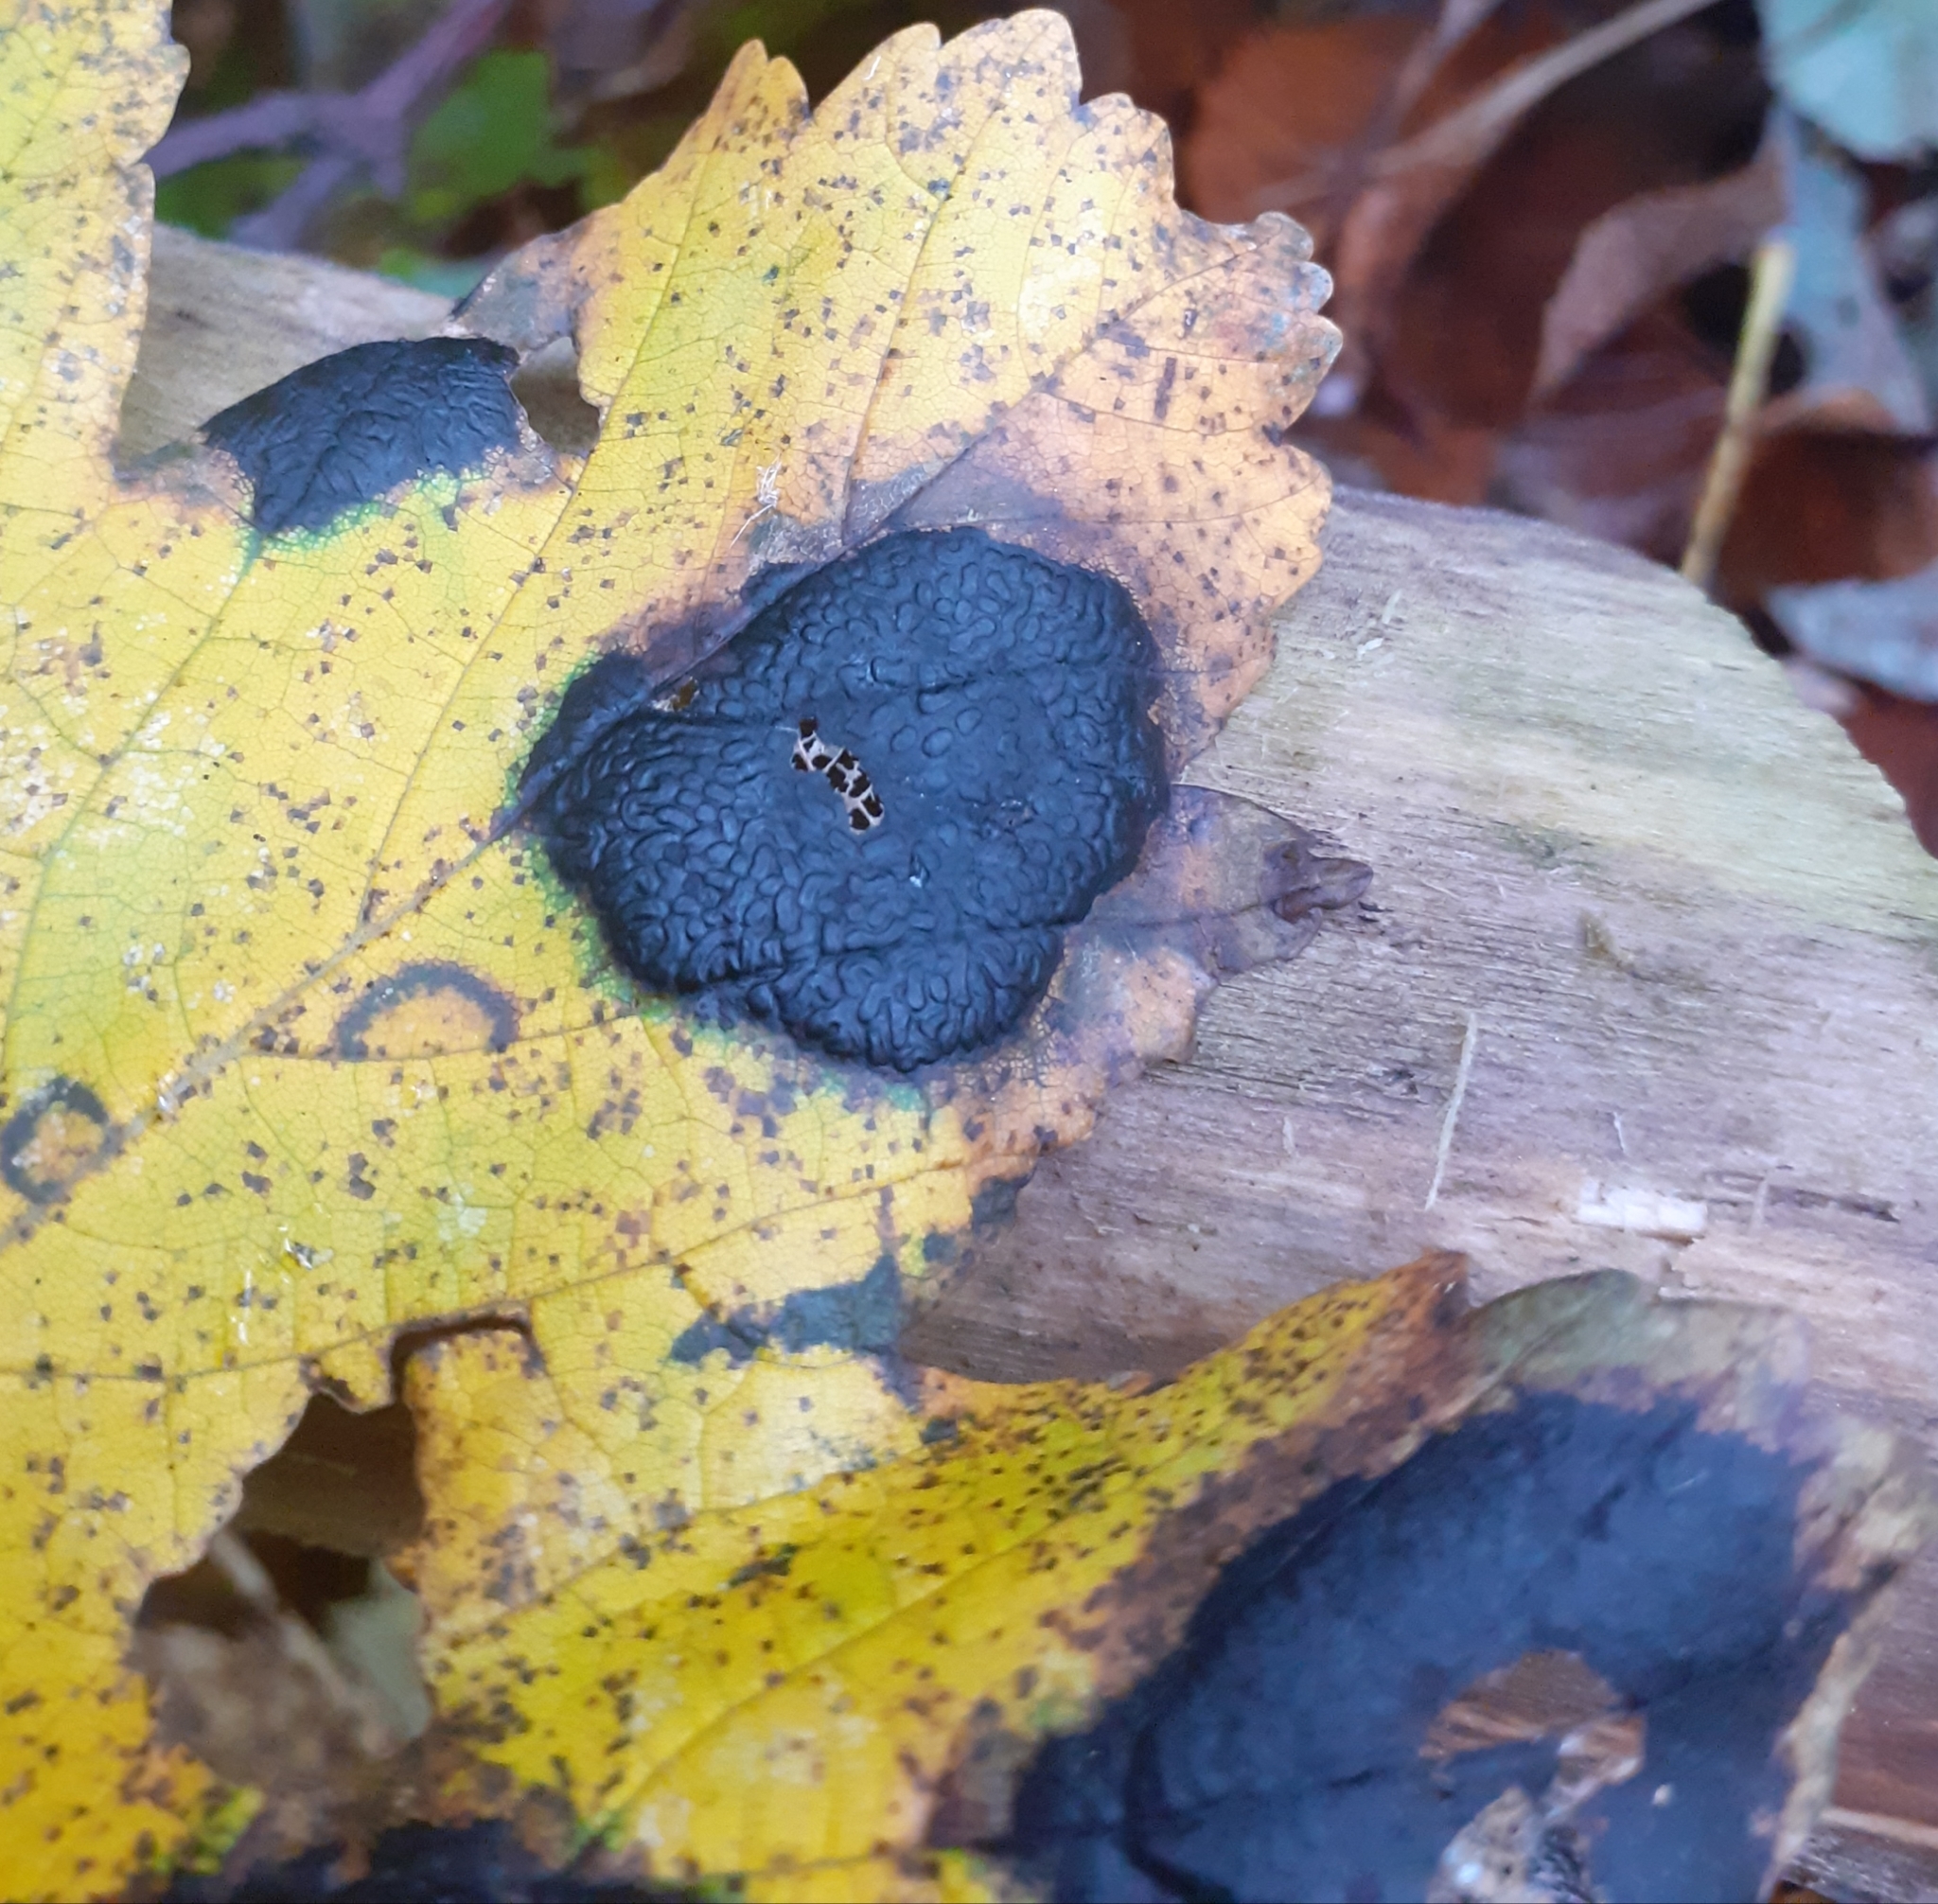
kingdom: Fungi
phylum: Ascomycota
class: Leotiomycetes
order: Rhytismatales
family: Rhytismataceae
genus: Rhytisma
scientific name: Rhytisma acerinum
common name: European tar spot
